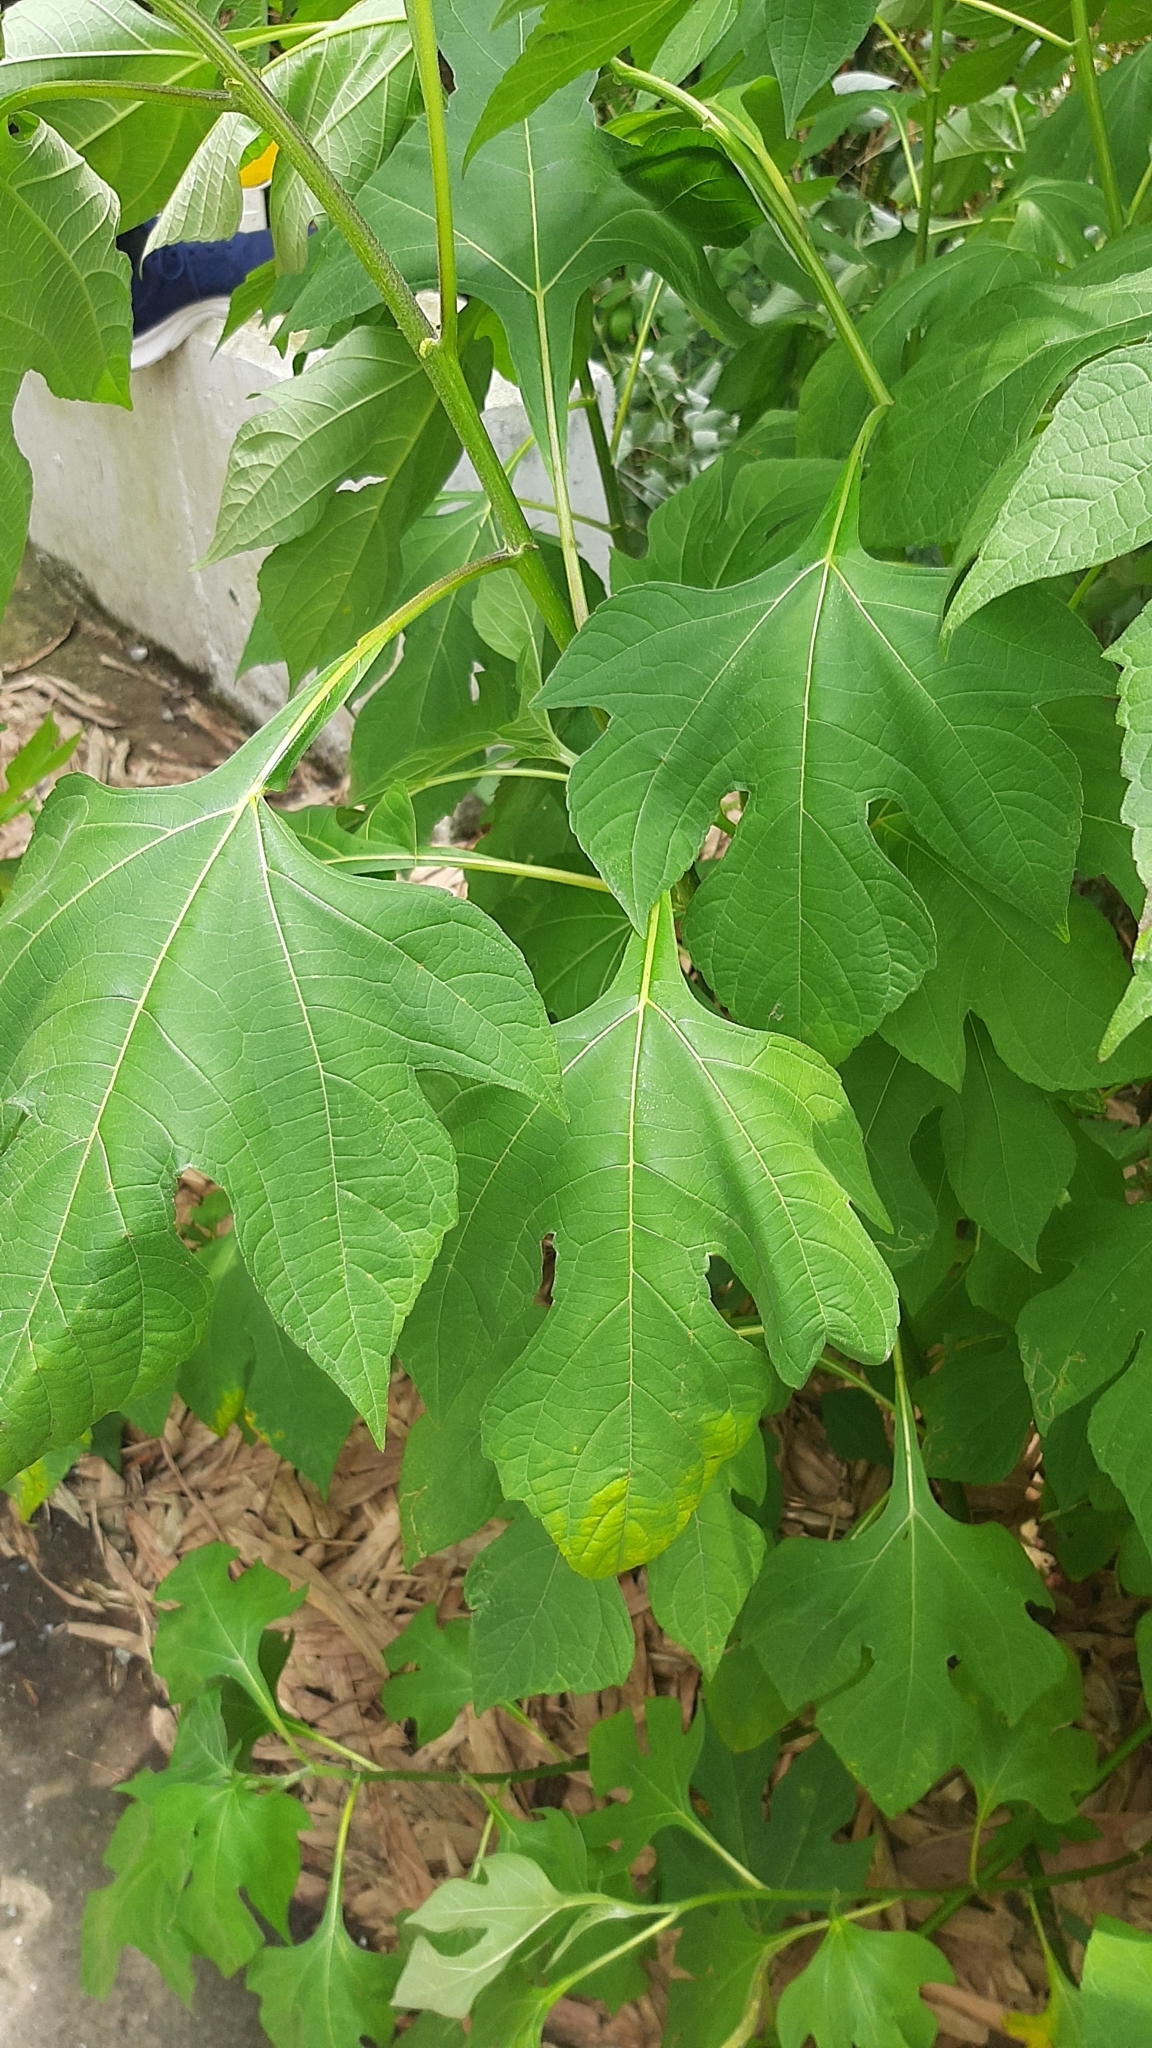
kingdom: Plantae
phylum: Tracheophyta
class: Magnoliopsida
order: Asterales
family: Asteraceae
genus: Tithonia
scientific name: Tithonia diversifolia
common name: Tree marigold
